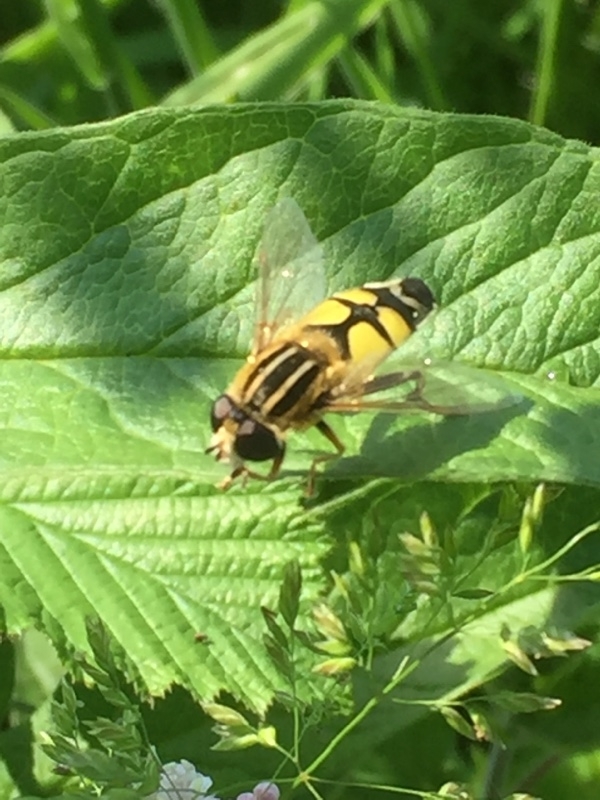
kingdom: Animalia
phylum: Arthropoda
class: Insecta
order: Diptera
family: Syrphidae
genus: Helophilus
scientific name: Helophilus trivittatus
